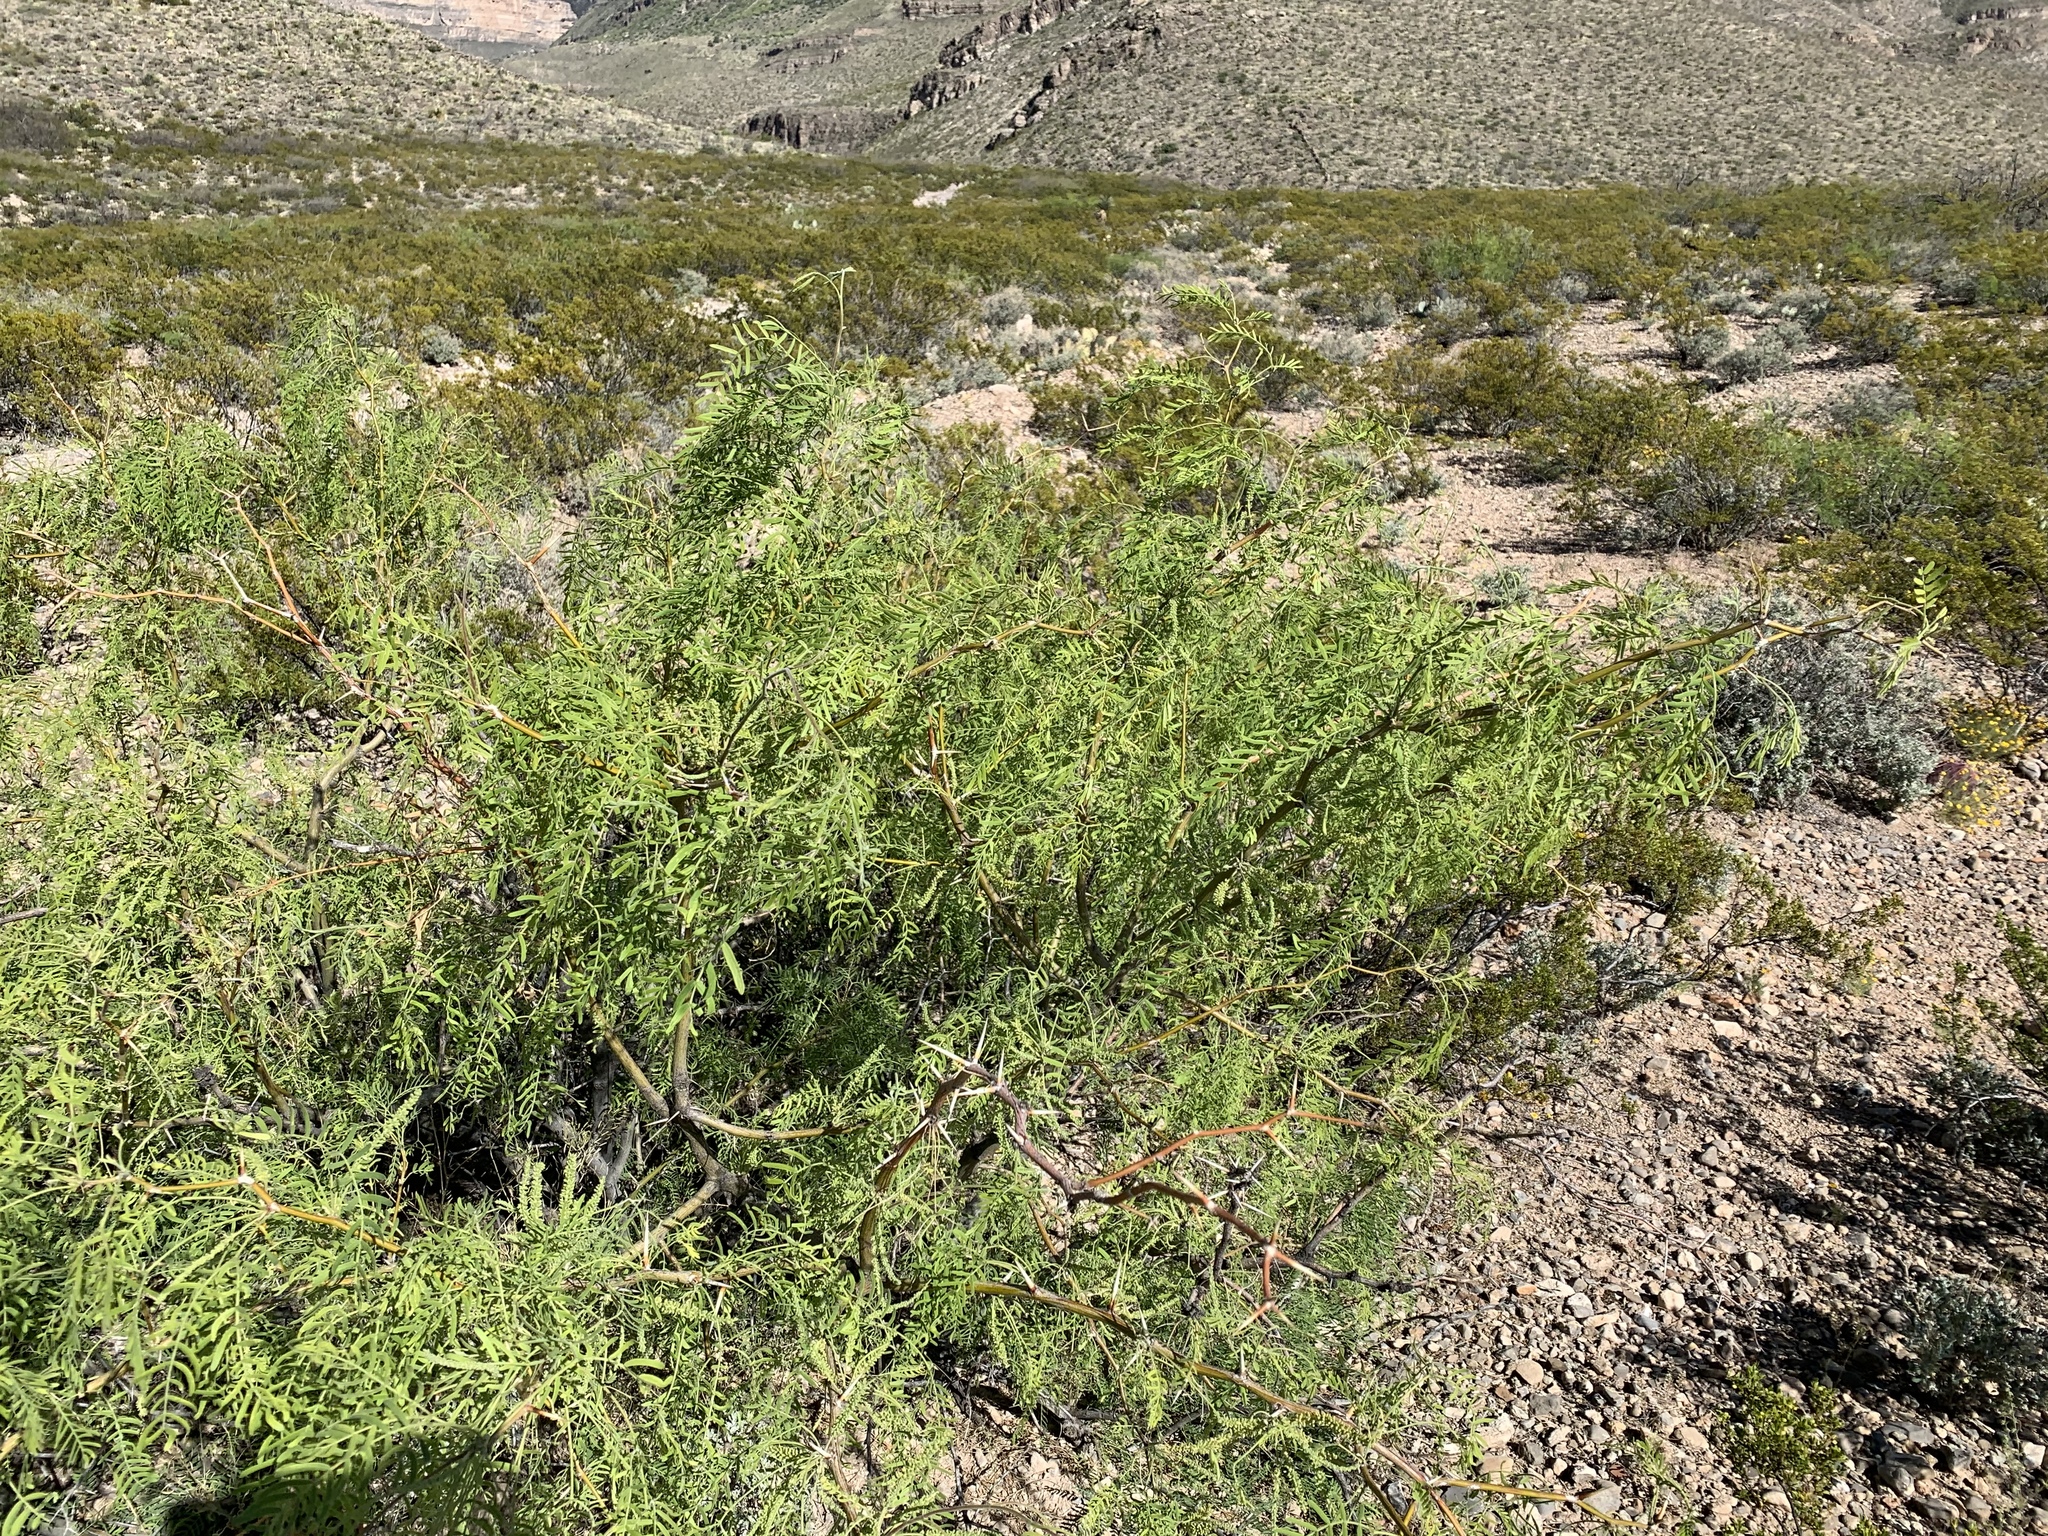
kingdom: Plantae
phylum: Tracheophyta
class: Magnoliopsida
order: Fabales
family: Fabaceae
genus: Prosopis
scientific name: Prosopis glandulosa
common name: Honey mesquite
